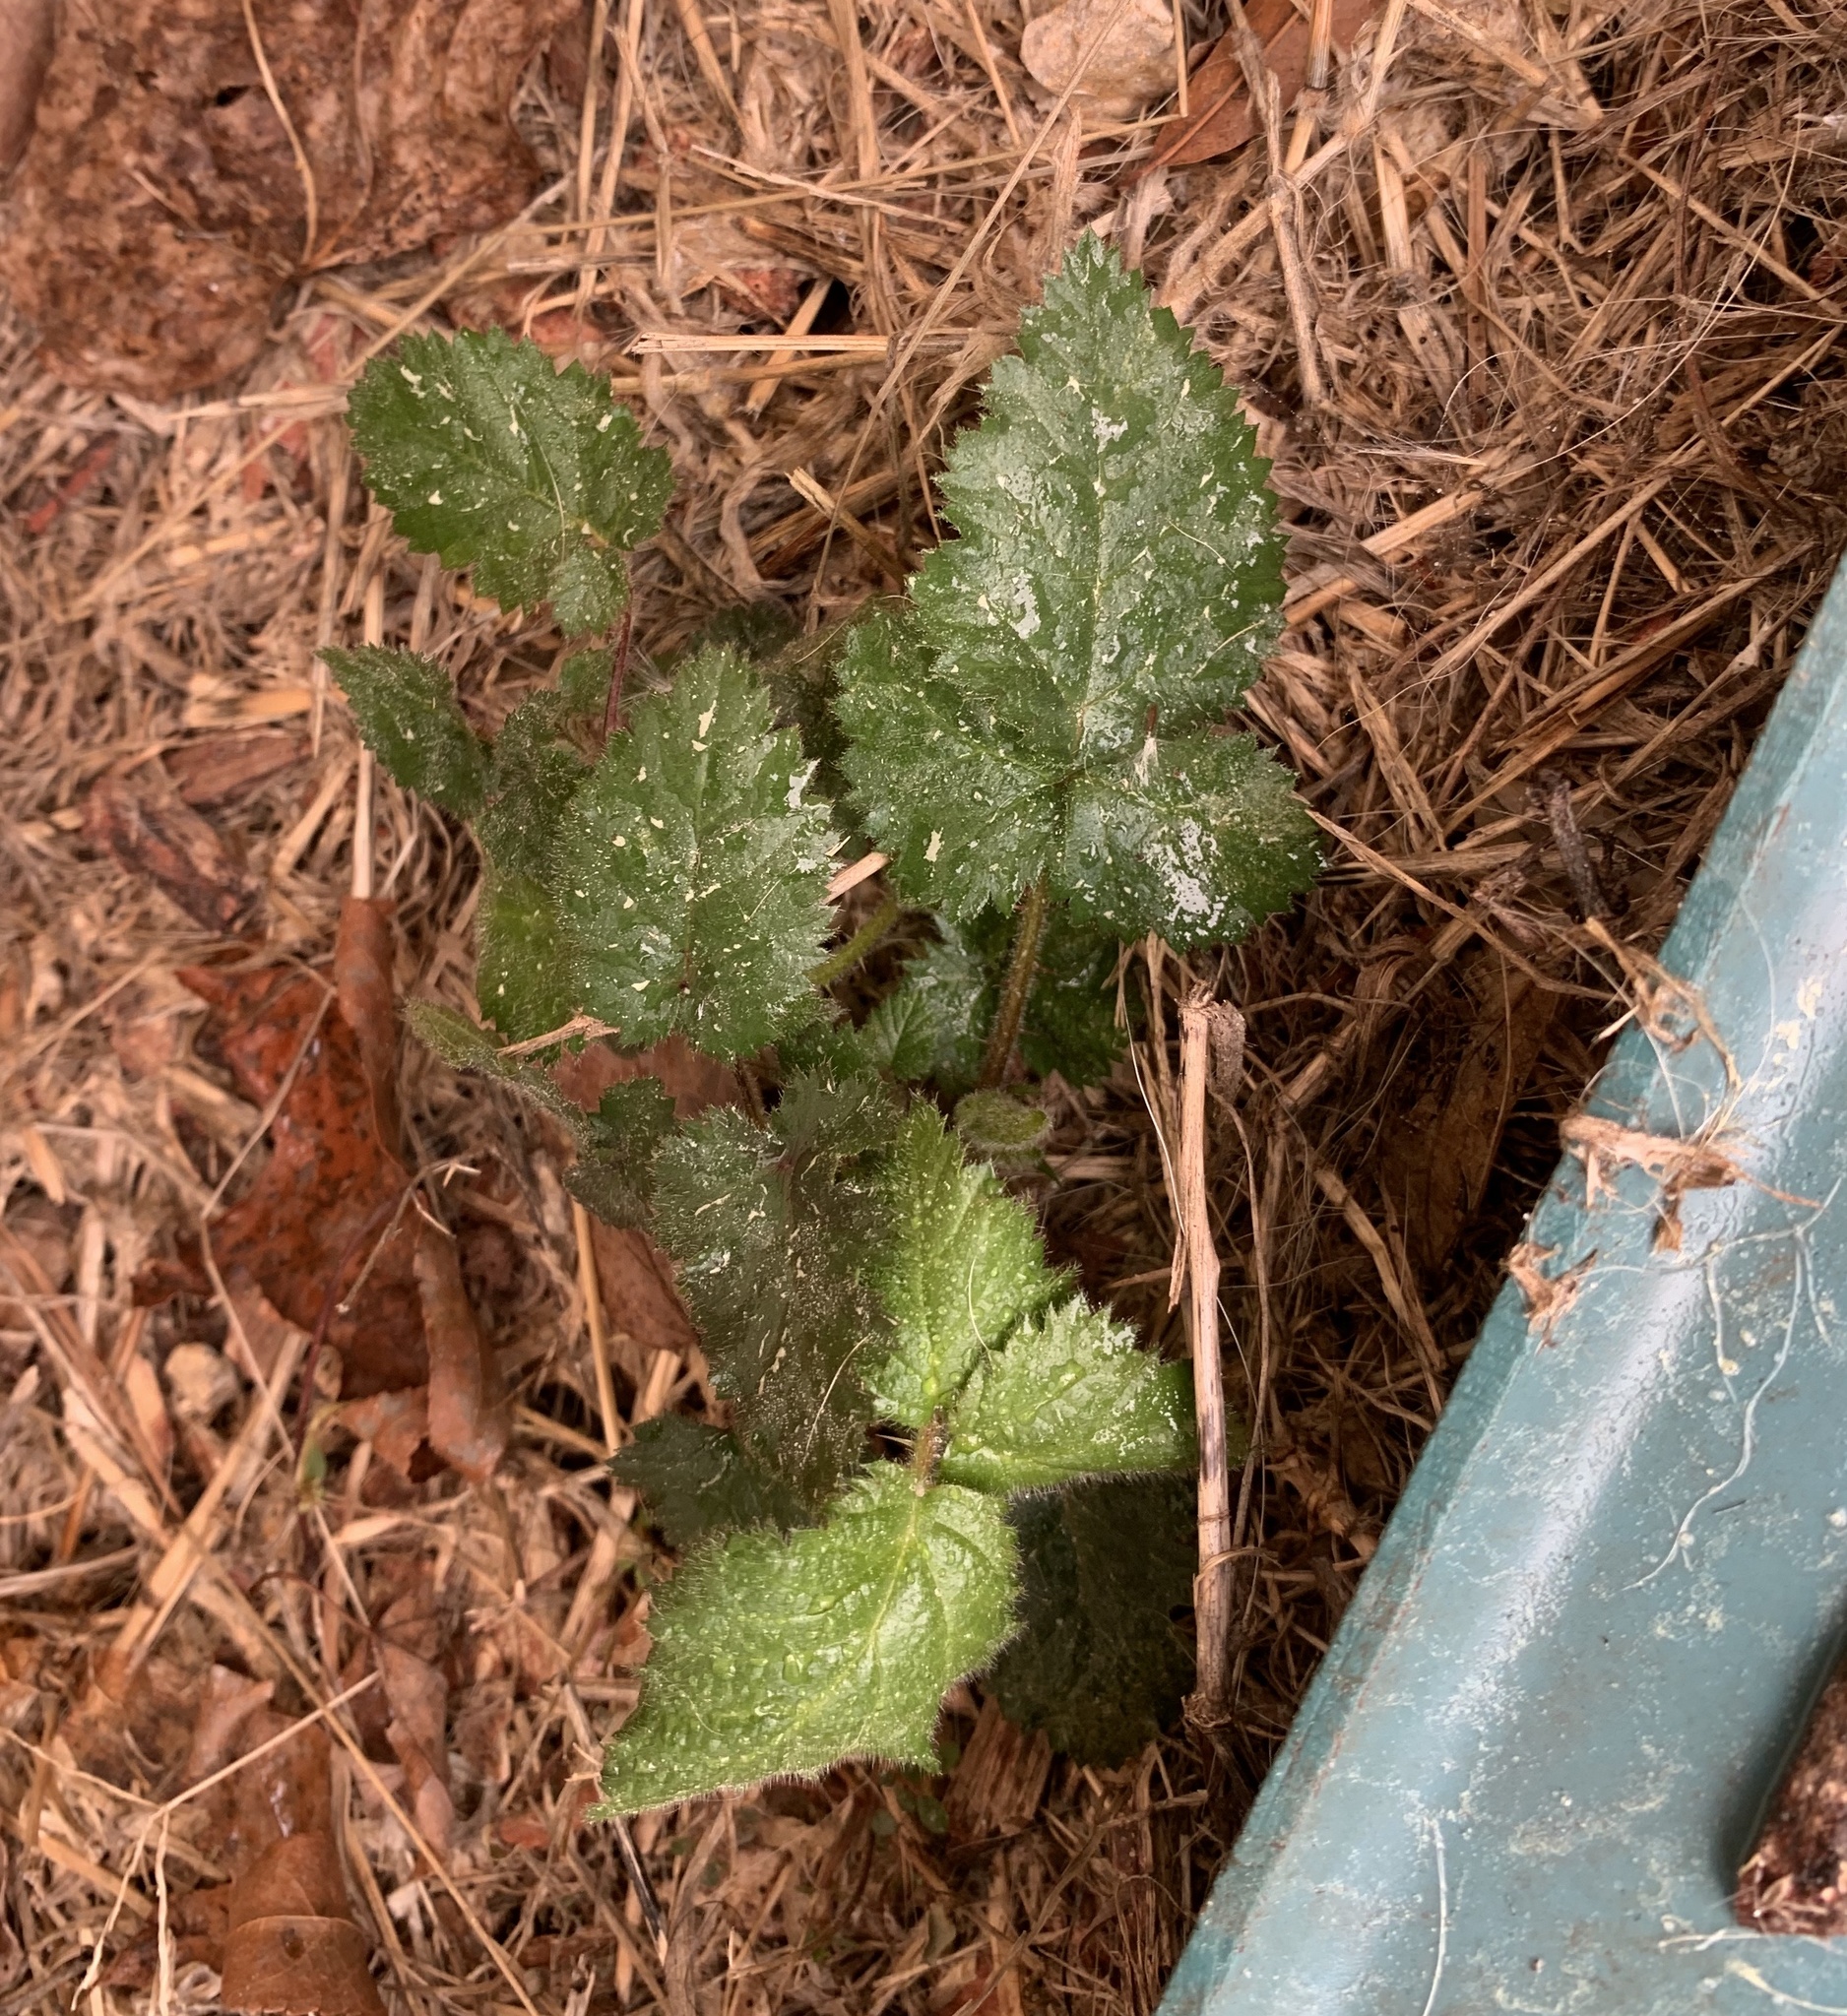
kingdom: Plantae
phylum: Tracheophyta
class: Magnoliopsida
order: Rosales
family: Rosaceae
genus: Rubus
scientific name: Rubus phoenicolasius
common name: Japanese wineberry
